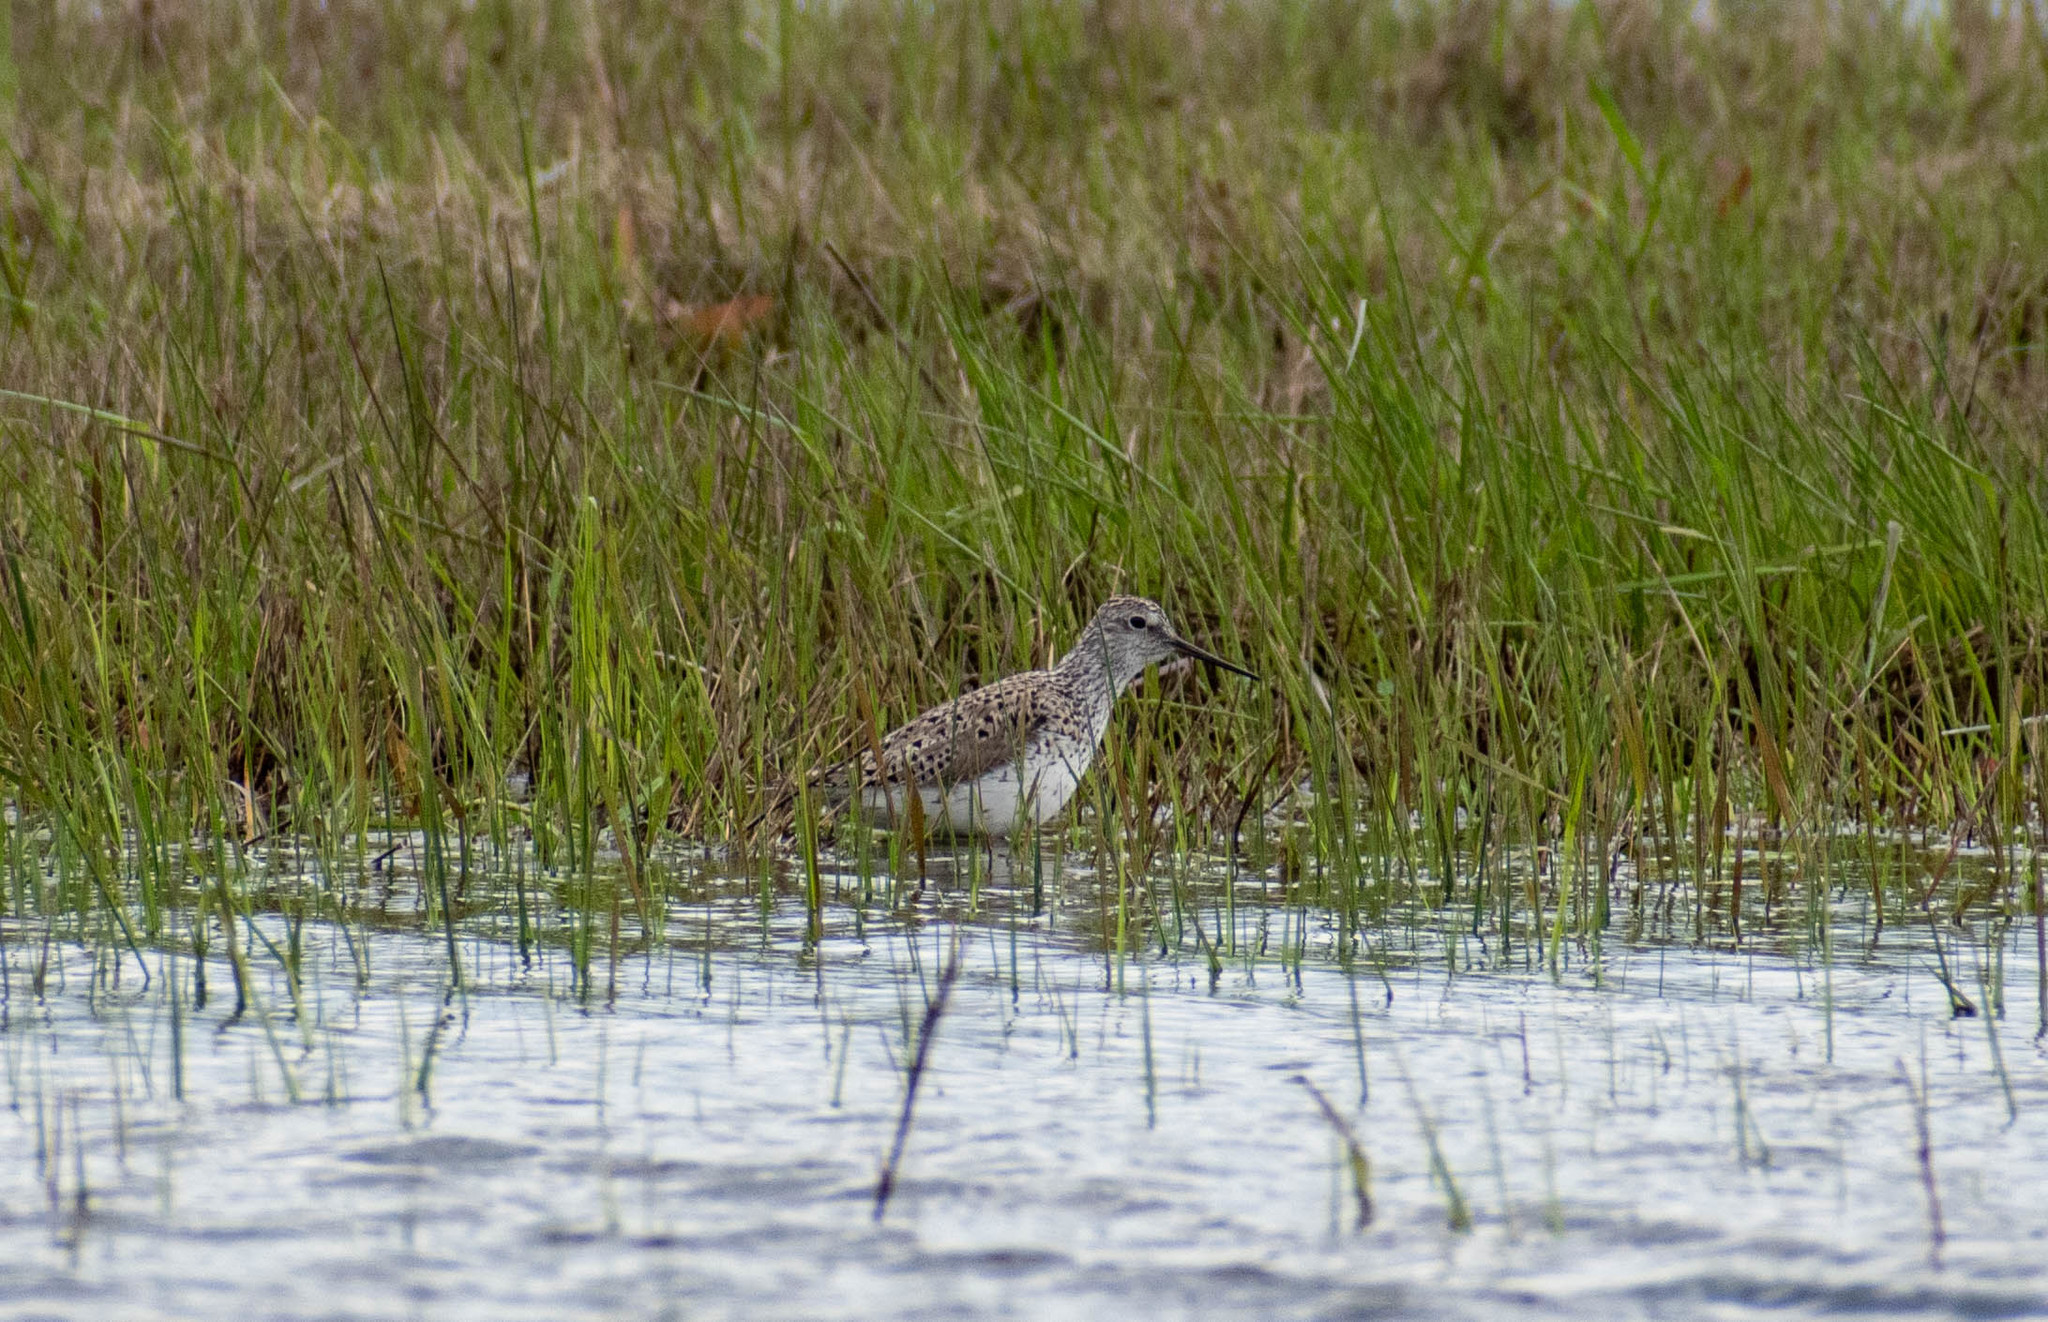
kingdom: Animalia
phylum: Chordata
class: Aves
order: Charadriiformes
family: Scolopacidae
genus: Tringa
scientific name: Tringa stagnatilis
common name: Marsh sandpiper
